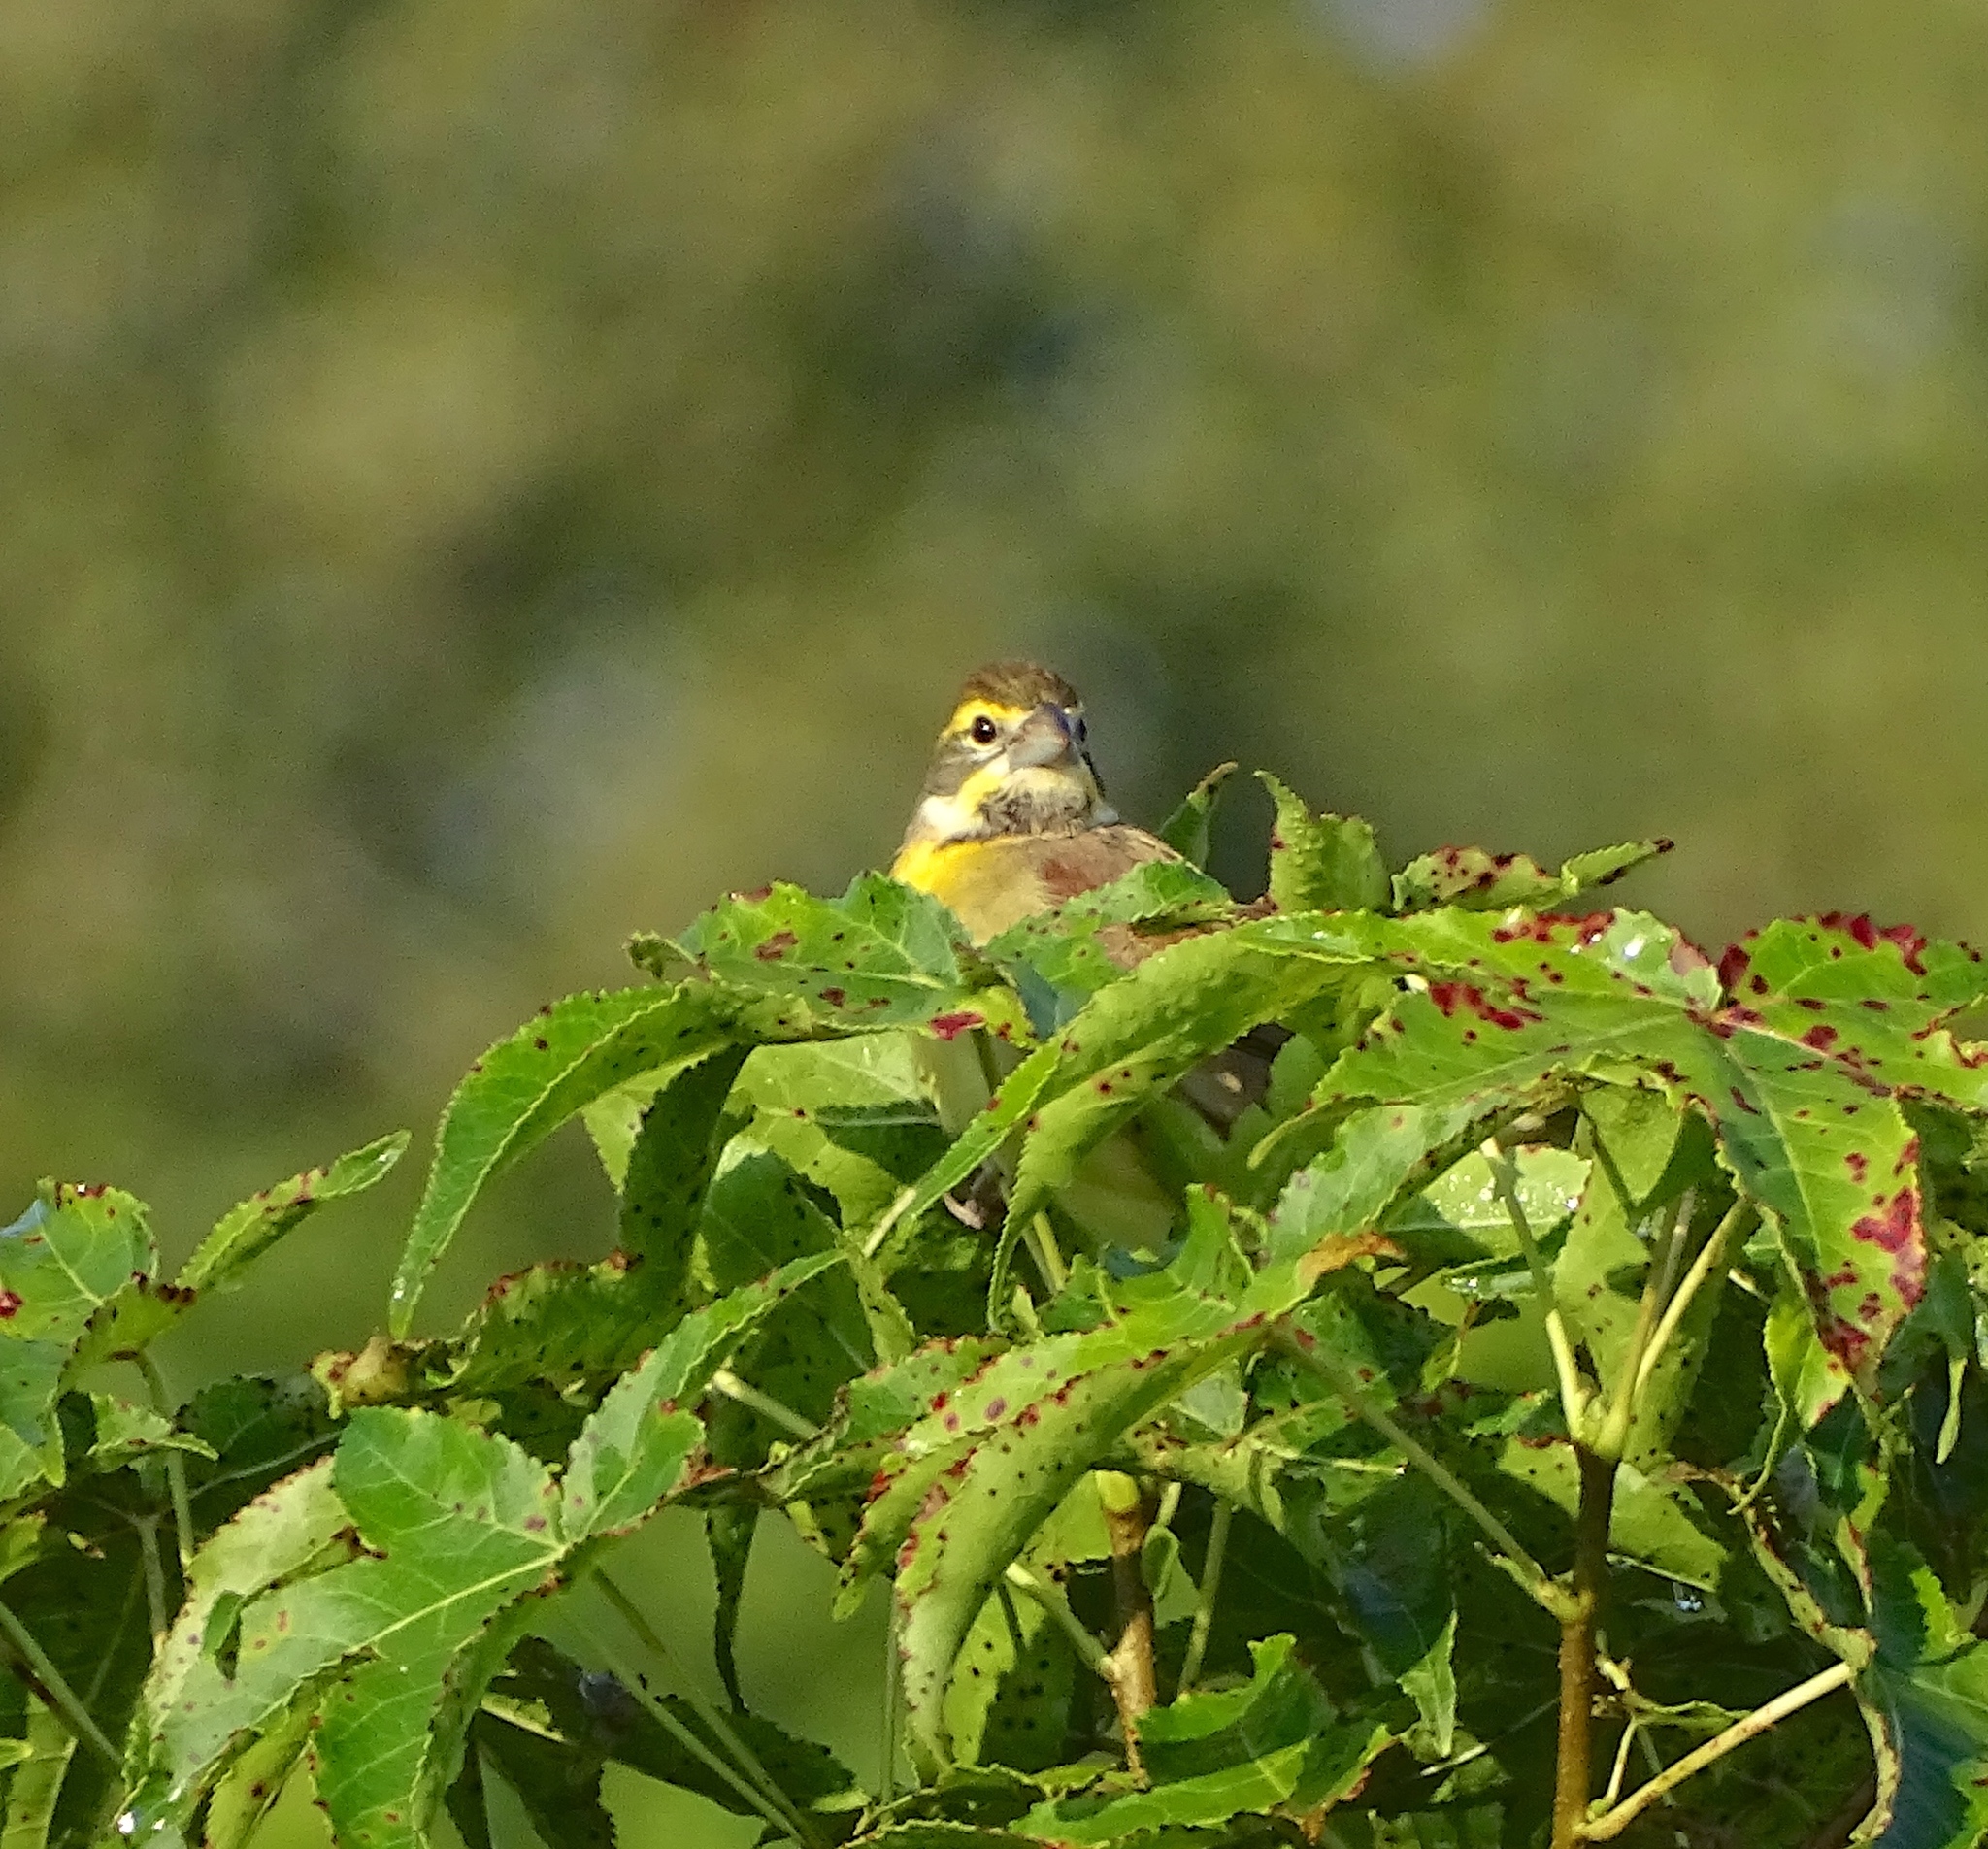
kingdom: Animalia
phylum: Chordata
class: Aves
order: Passeriformes
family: Cardinalidae
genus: Spiza
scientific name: Spiza americana
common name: Dickcissel
